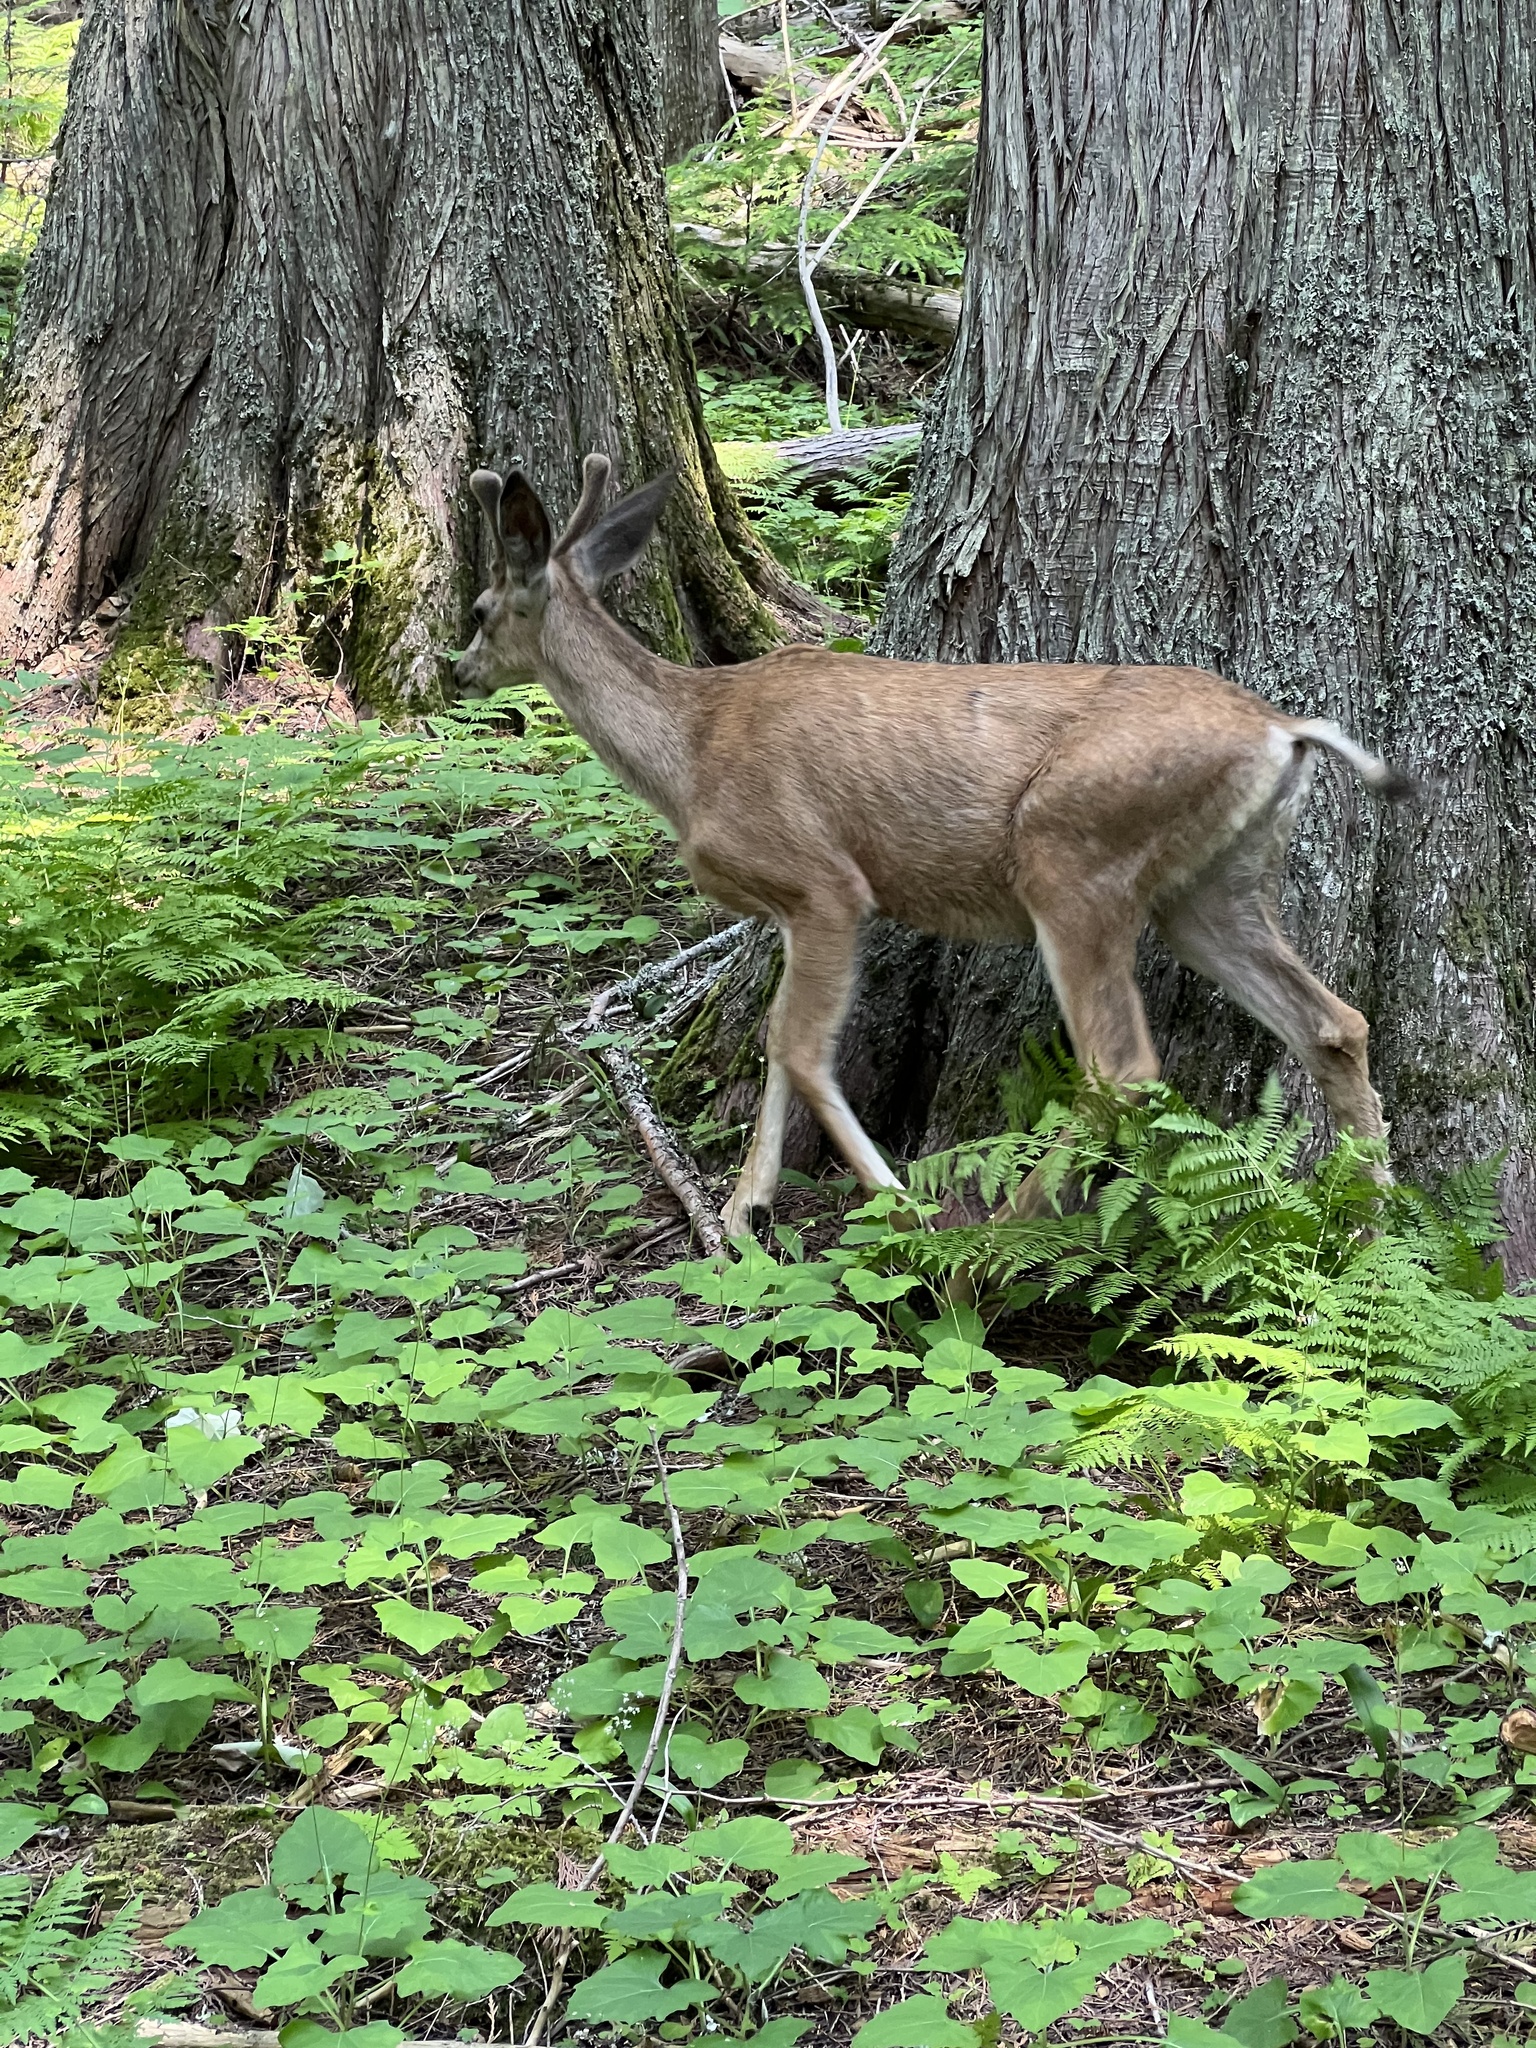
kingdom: Animalia
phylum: Chordata
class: Mammalia
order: Artiodactyla
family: Cervidae
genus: Odocoileus
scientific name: Odocoileus hemionus
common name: Mule deer
